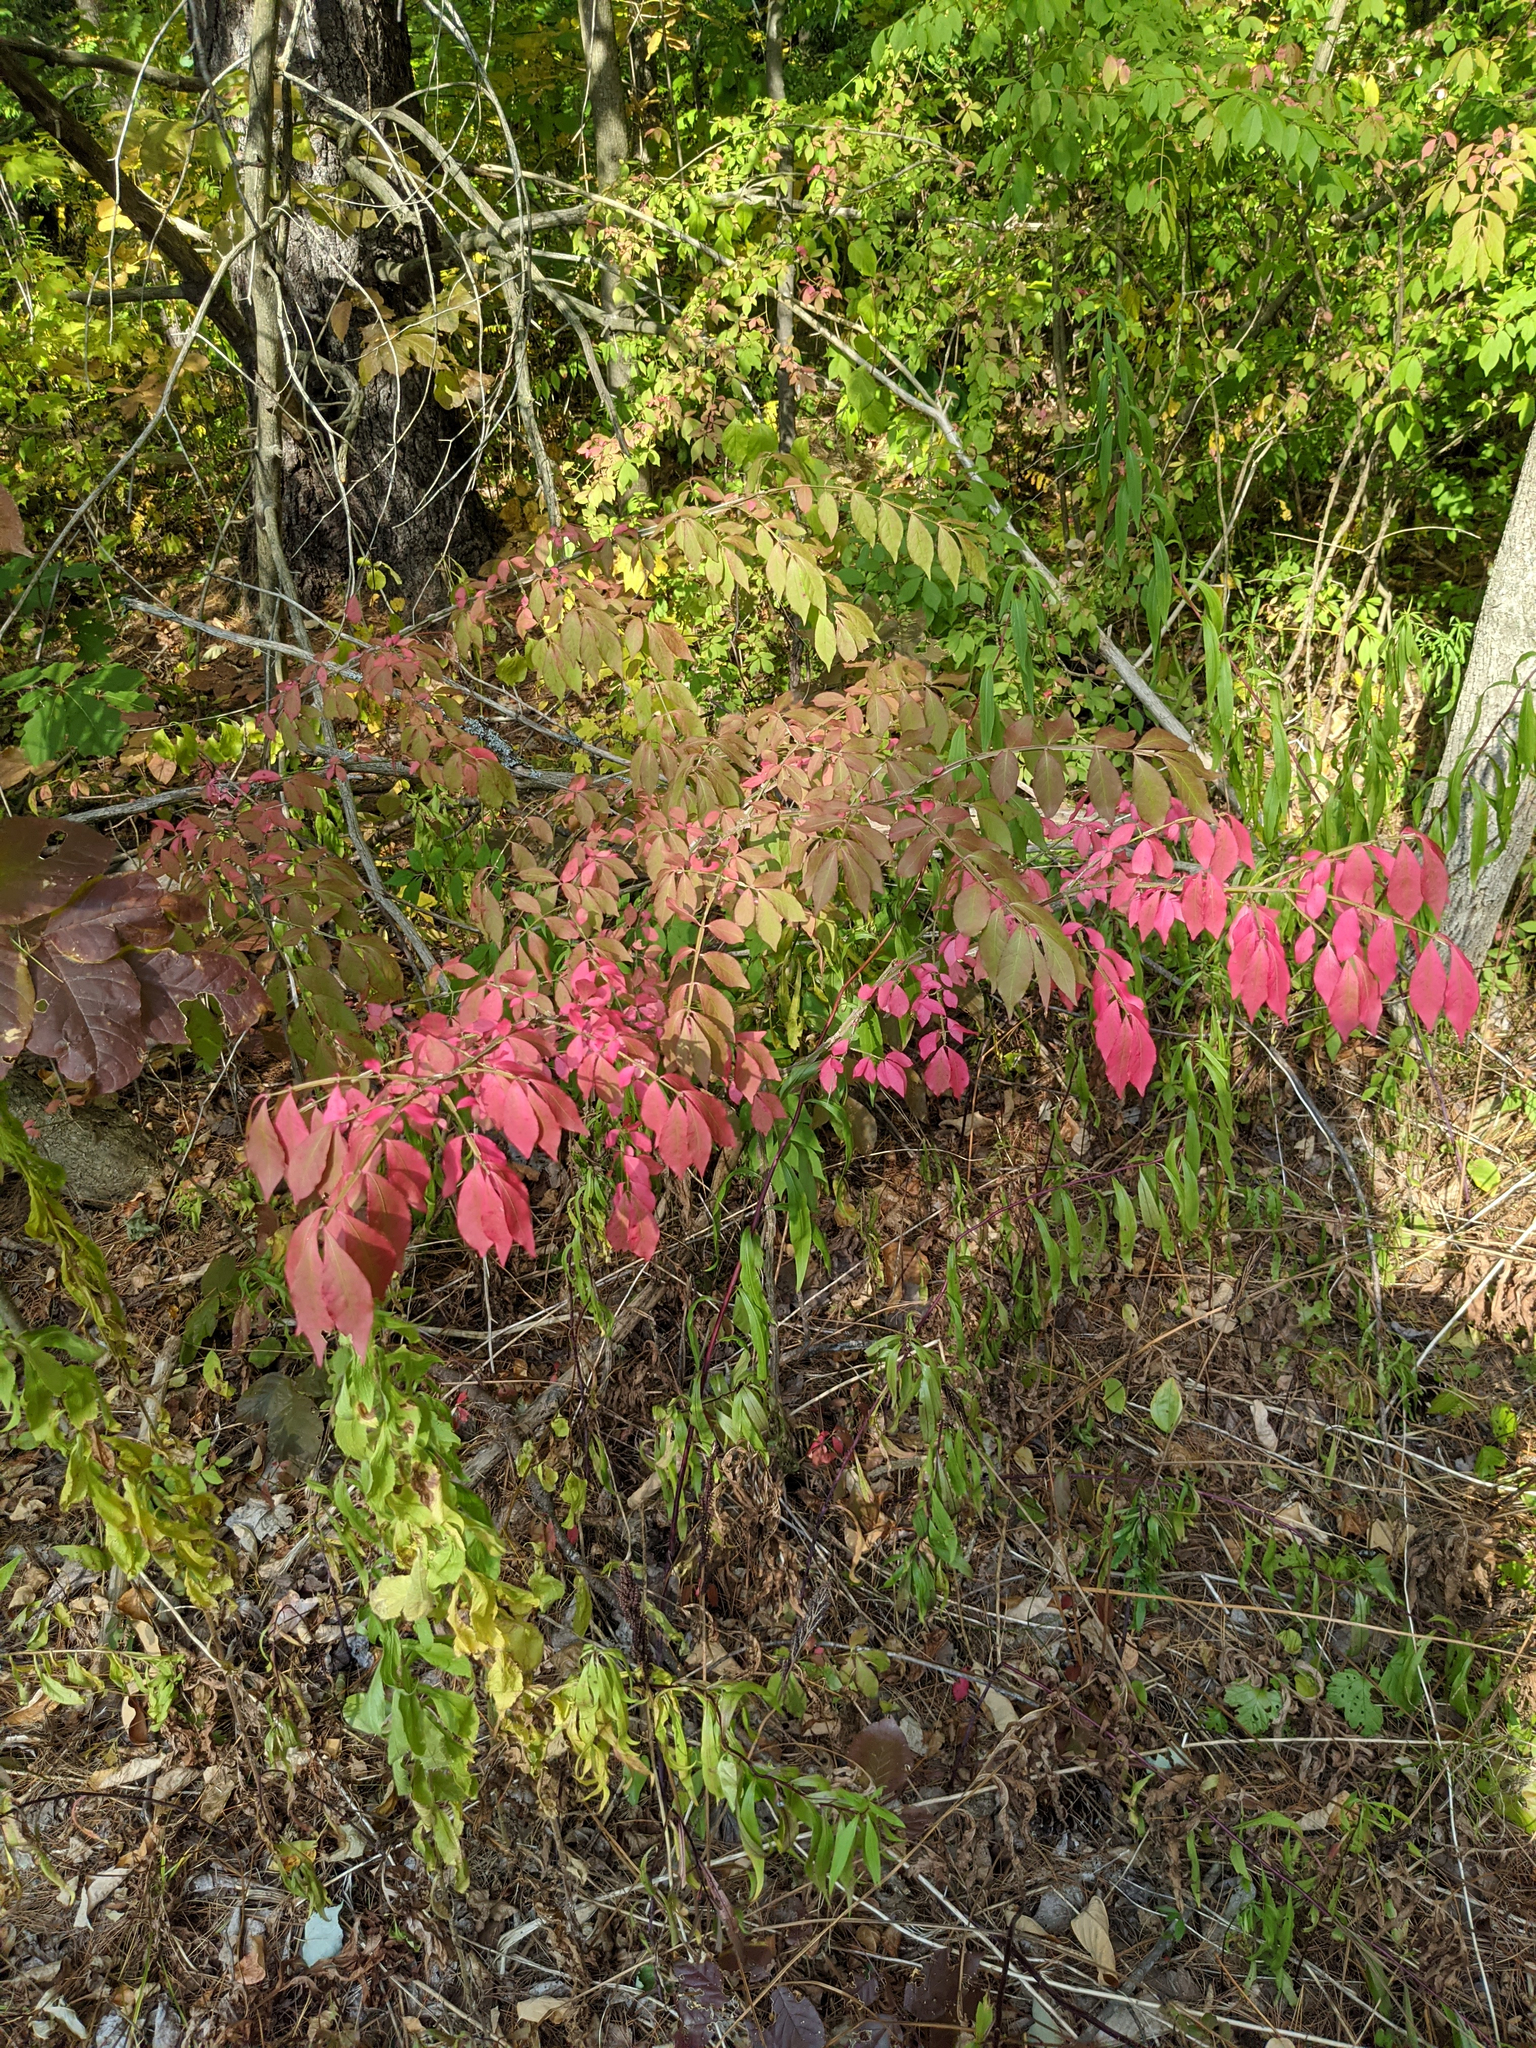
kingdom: Plantae
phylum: Tracheophyta
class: Magnoliopsida
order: Celastrales
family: Celastraceae
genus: Euonymus
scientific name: Euonymus alatus
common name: Winged euonymus
